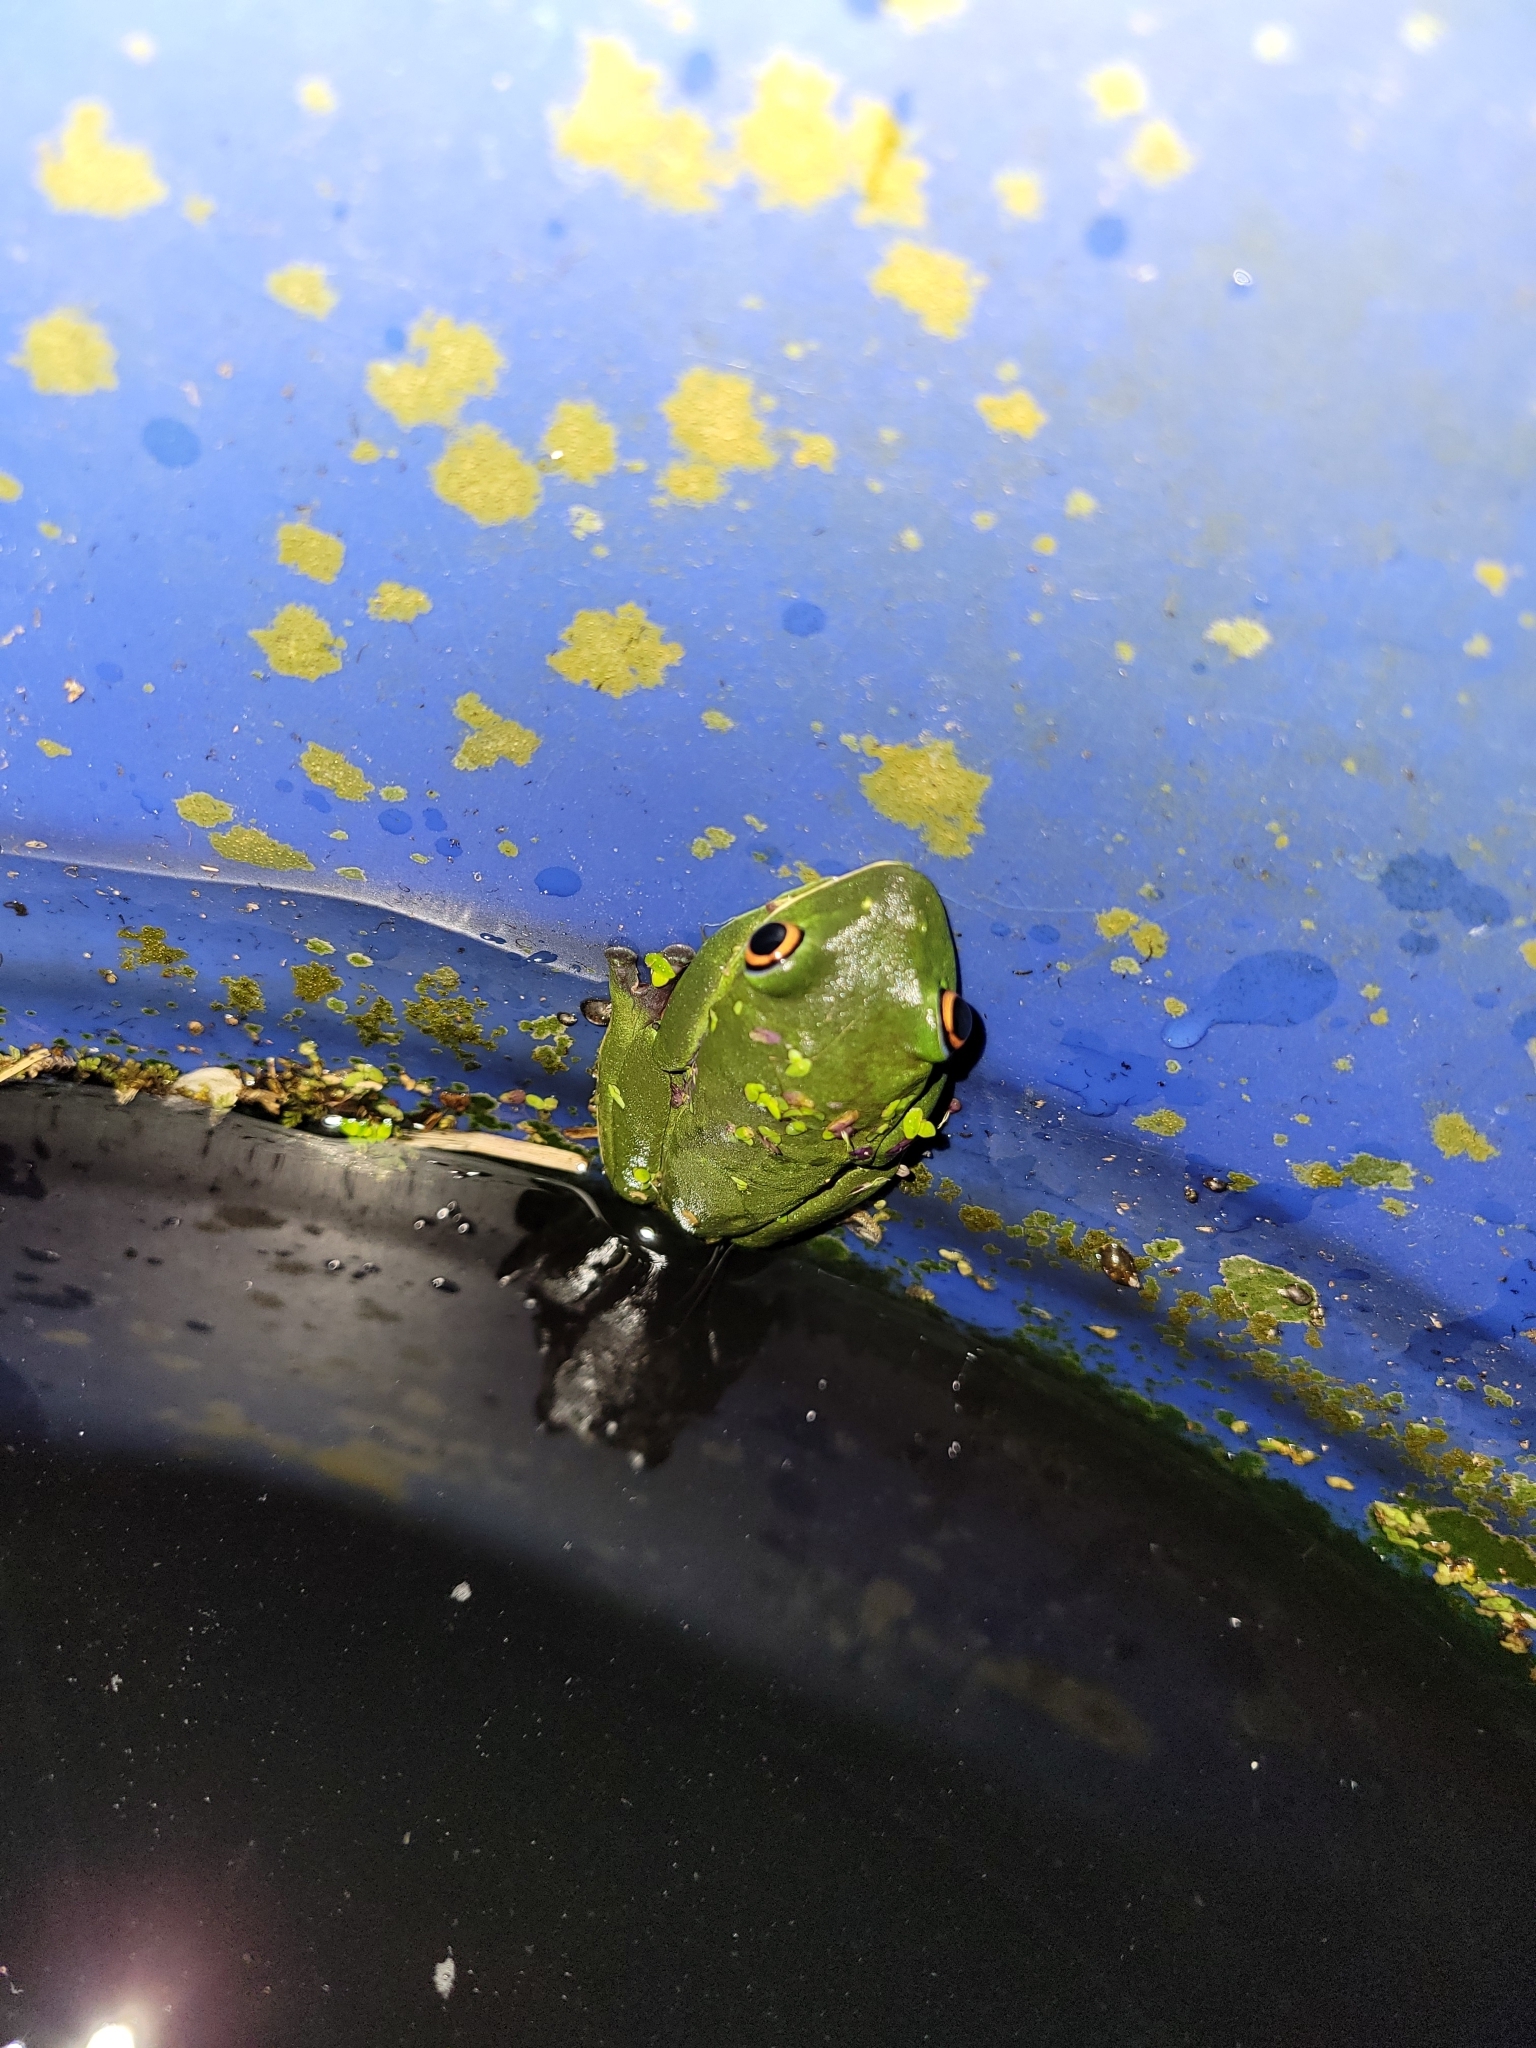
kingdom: Animalia
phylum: Chordata
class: Amphibia
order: Anura
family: Phyllomedusidae
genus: Agalychnis
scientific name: Agalychnis annae
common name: Blue-sided treefrog
